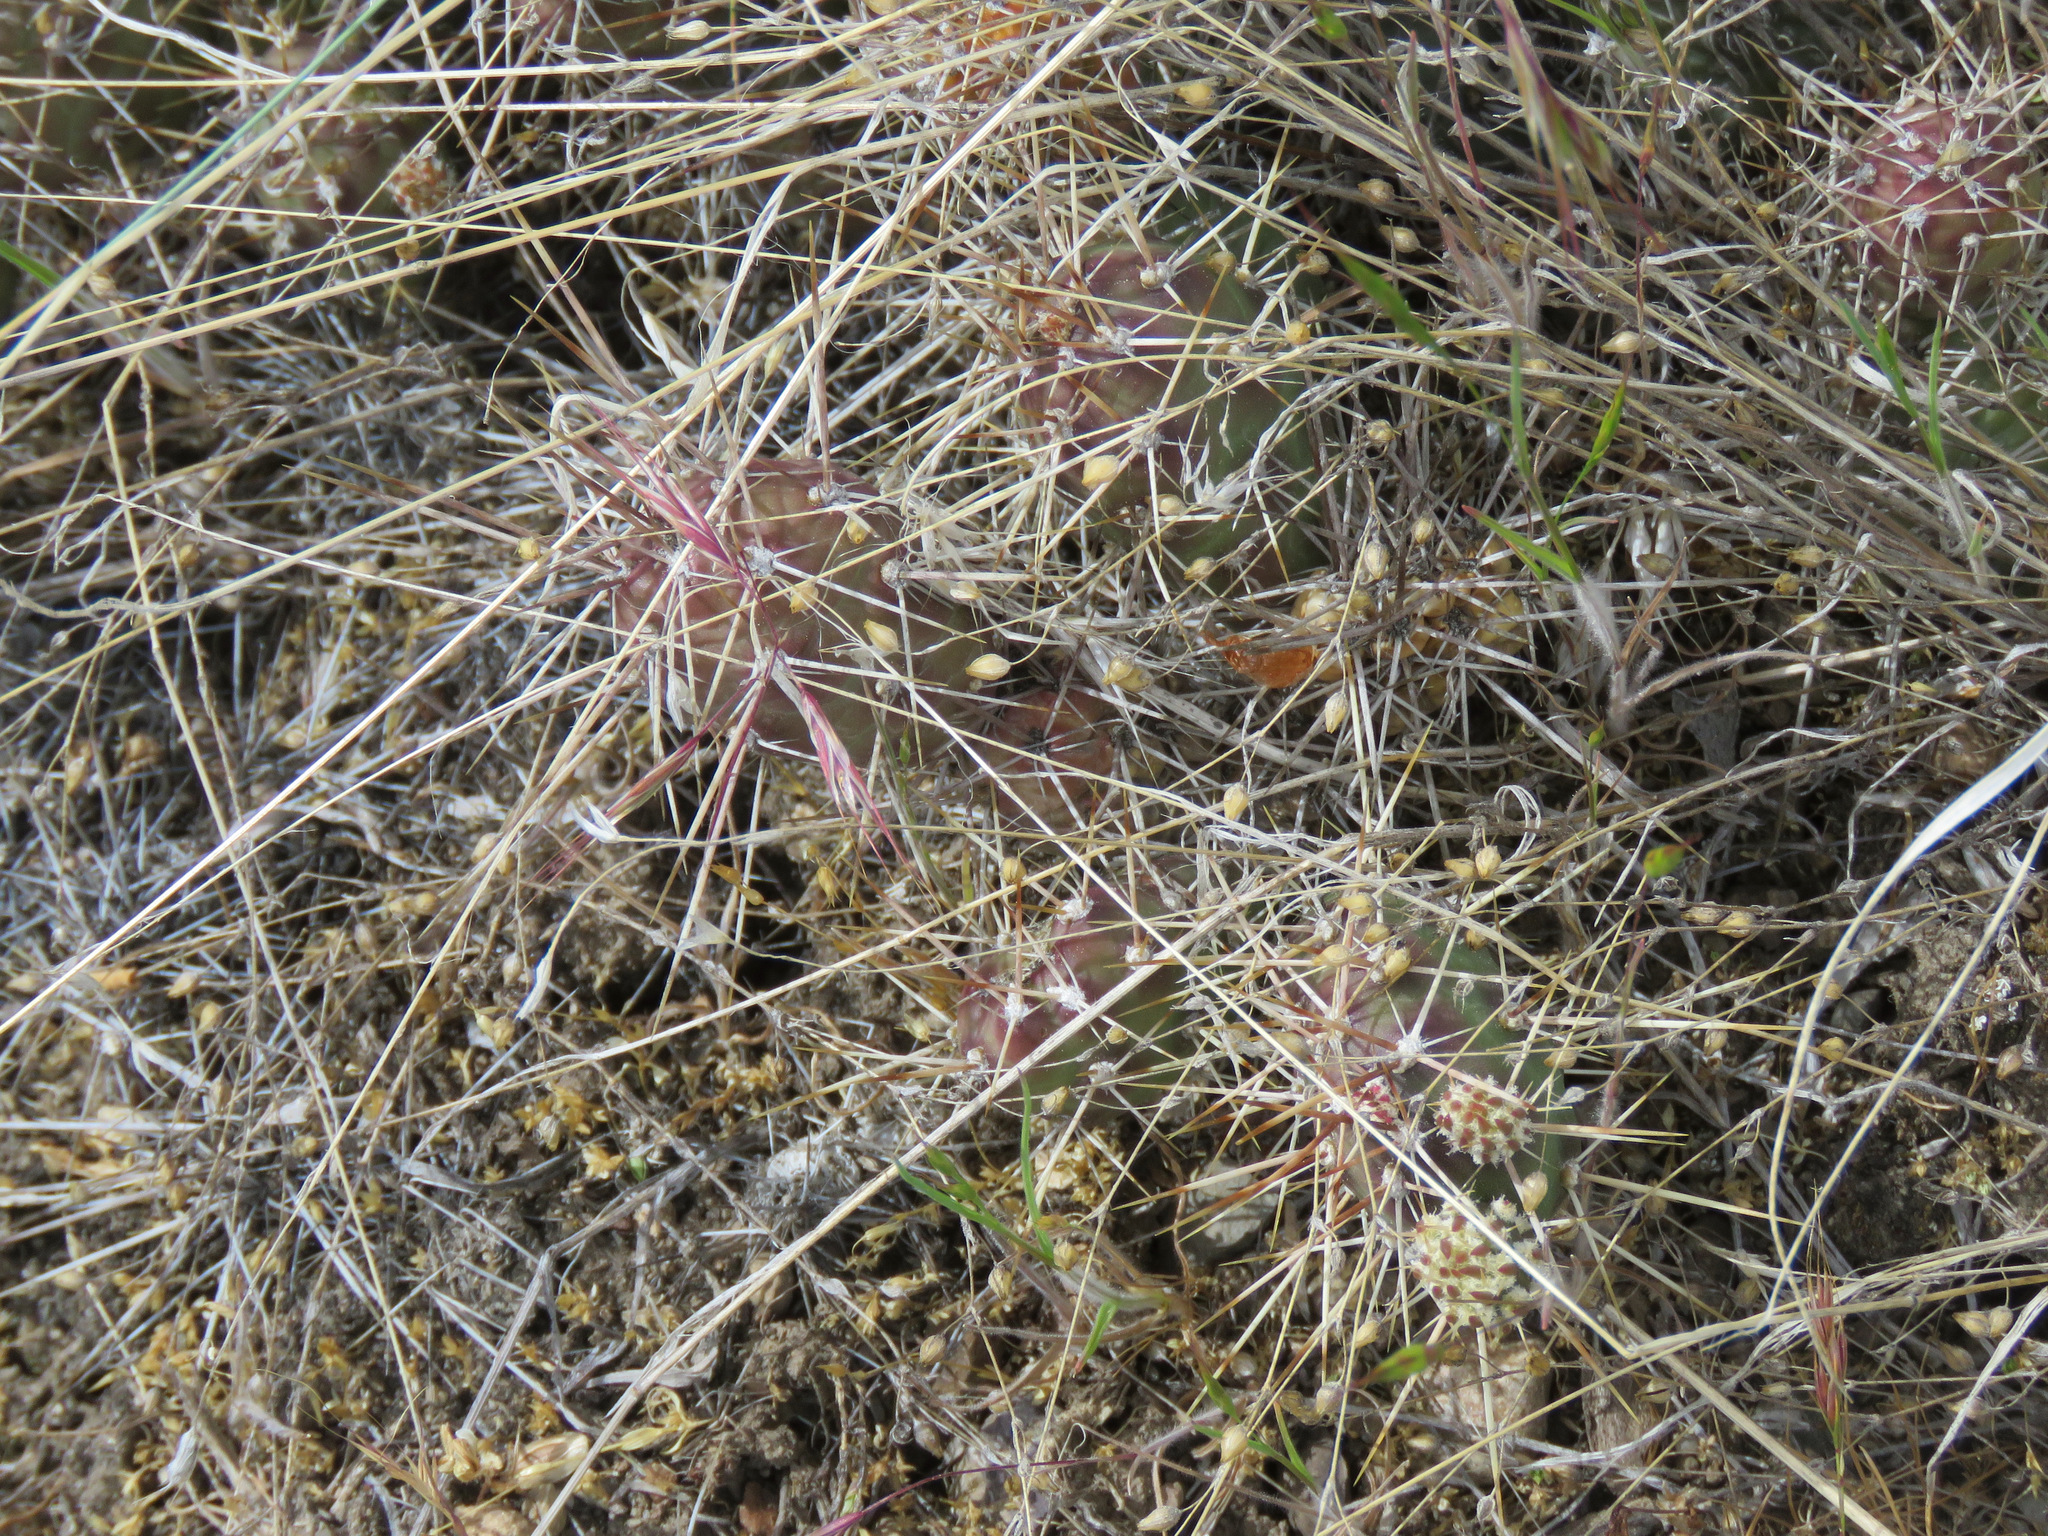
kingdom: Plantae
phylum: Tracheophyta
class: Magnoliopsida
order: Caryophyllales
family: Cactaceae
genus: Opuntia
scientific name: Opuntia fragilis
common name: Brittle cactus
